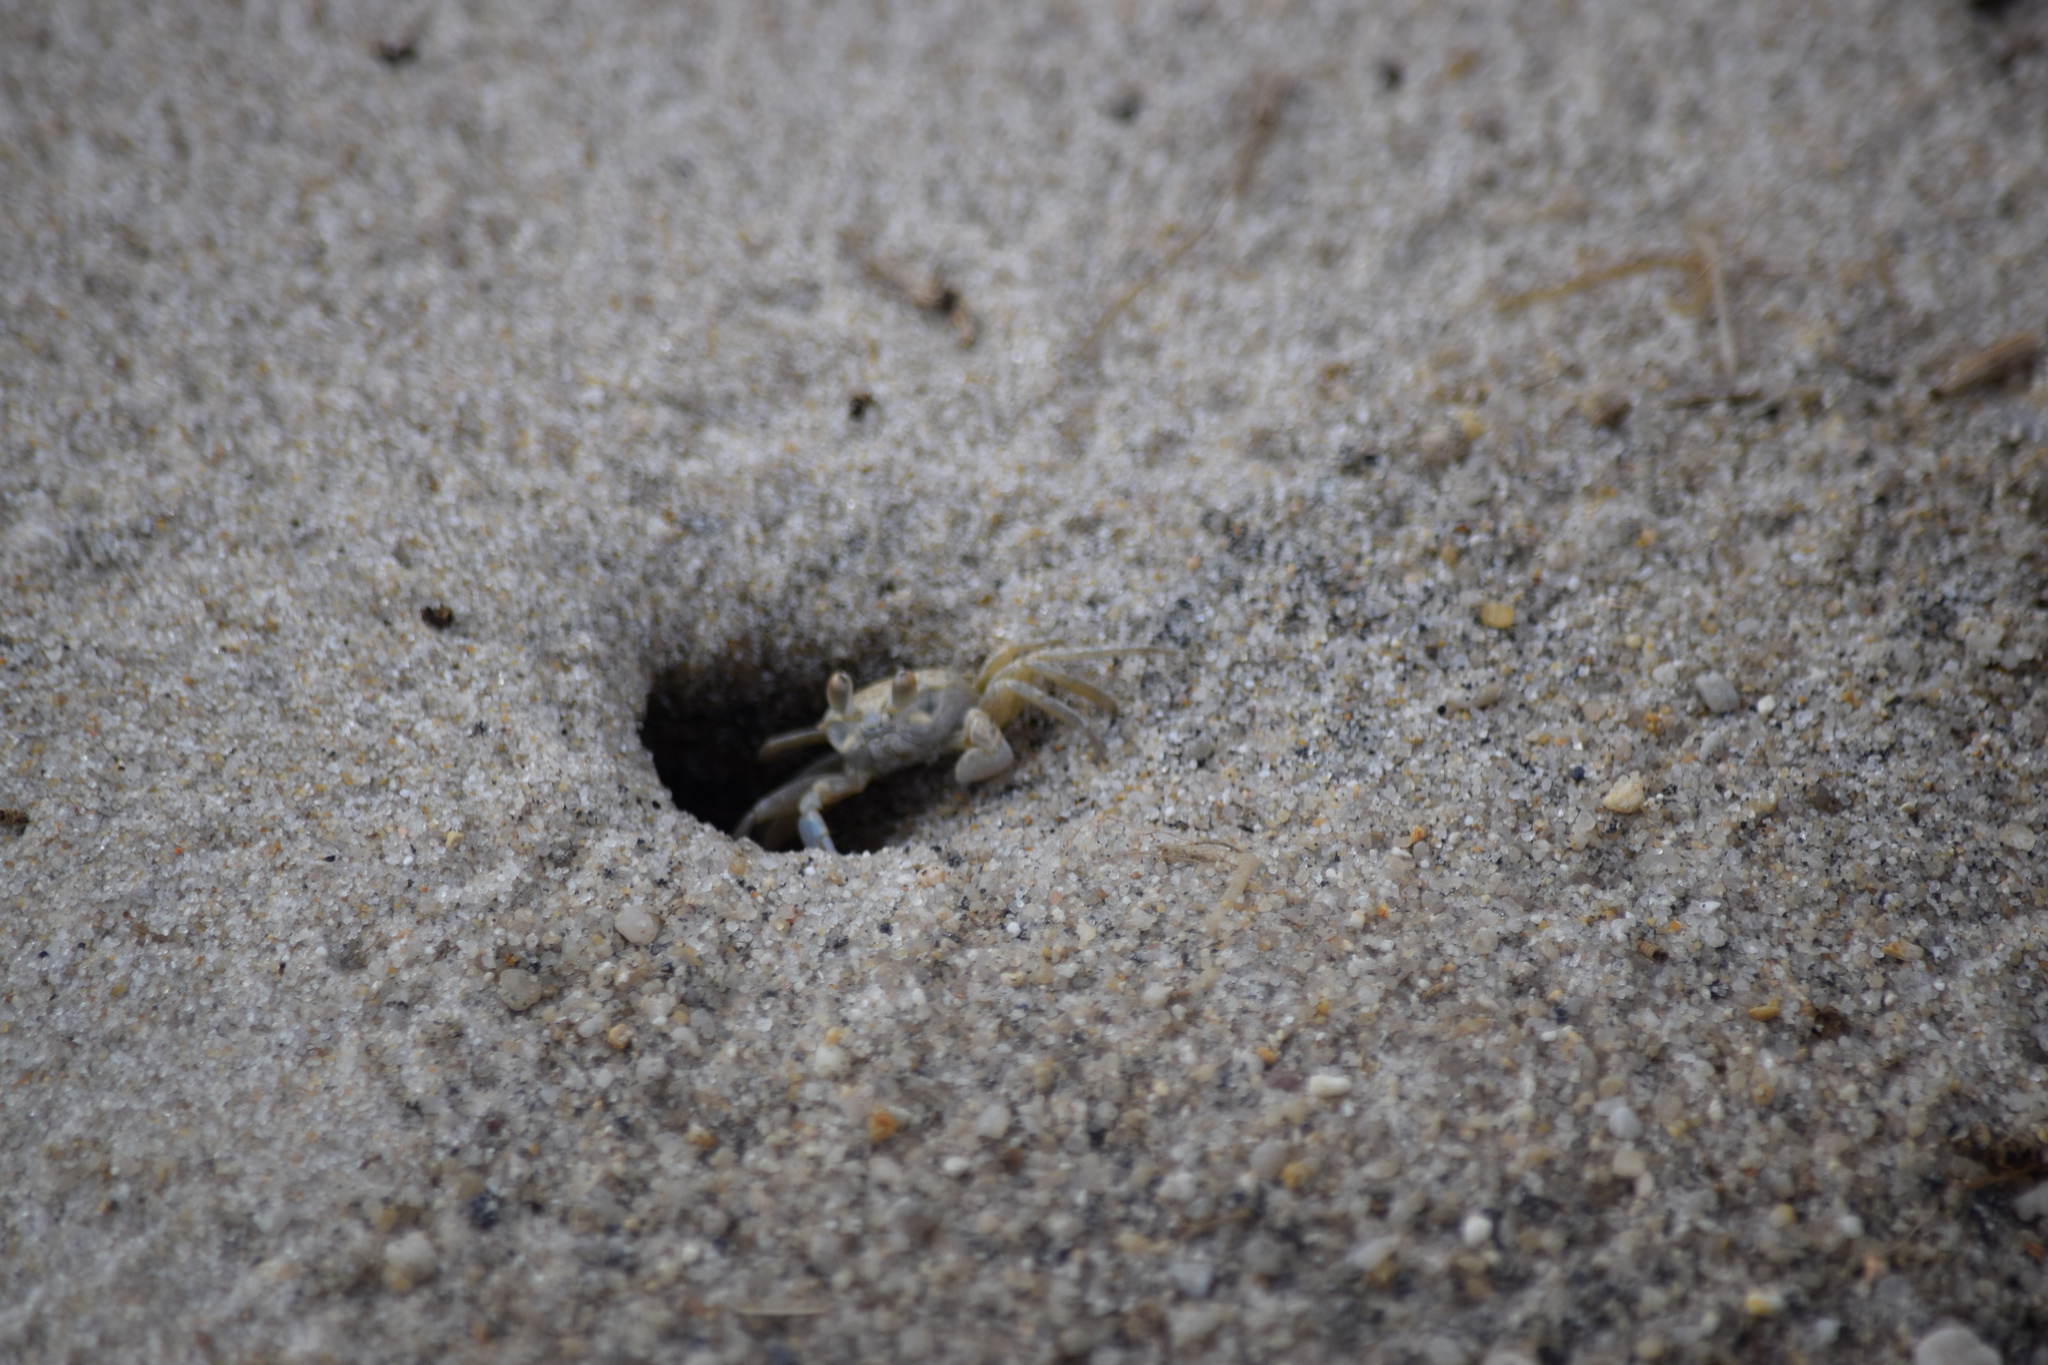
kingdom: Animalia
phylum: Arthropoda
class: Malacostraca
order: Decapoda
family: Ocypodidae
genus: Ocypode
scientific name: Ocypode quadrata
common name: Ghost crab
